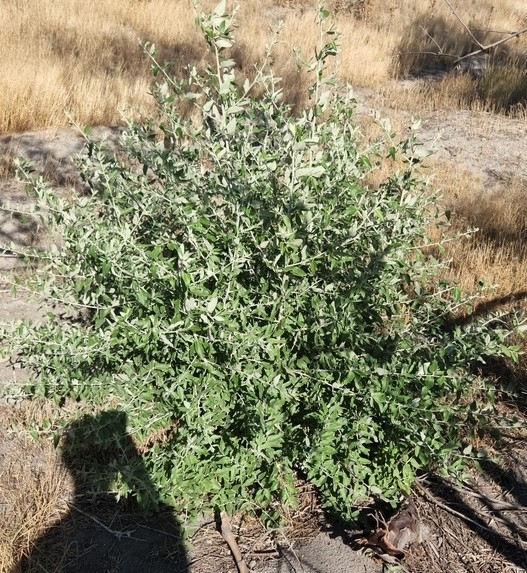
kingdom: Plantae
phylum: Tracheophyta
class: Magnoliopsida
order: Rosales
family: Elaeagnaceae
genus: Elaeagnus
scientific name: Elaeagnus angustifolia
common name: Russian olive
